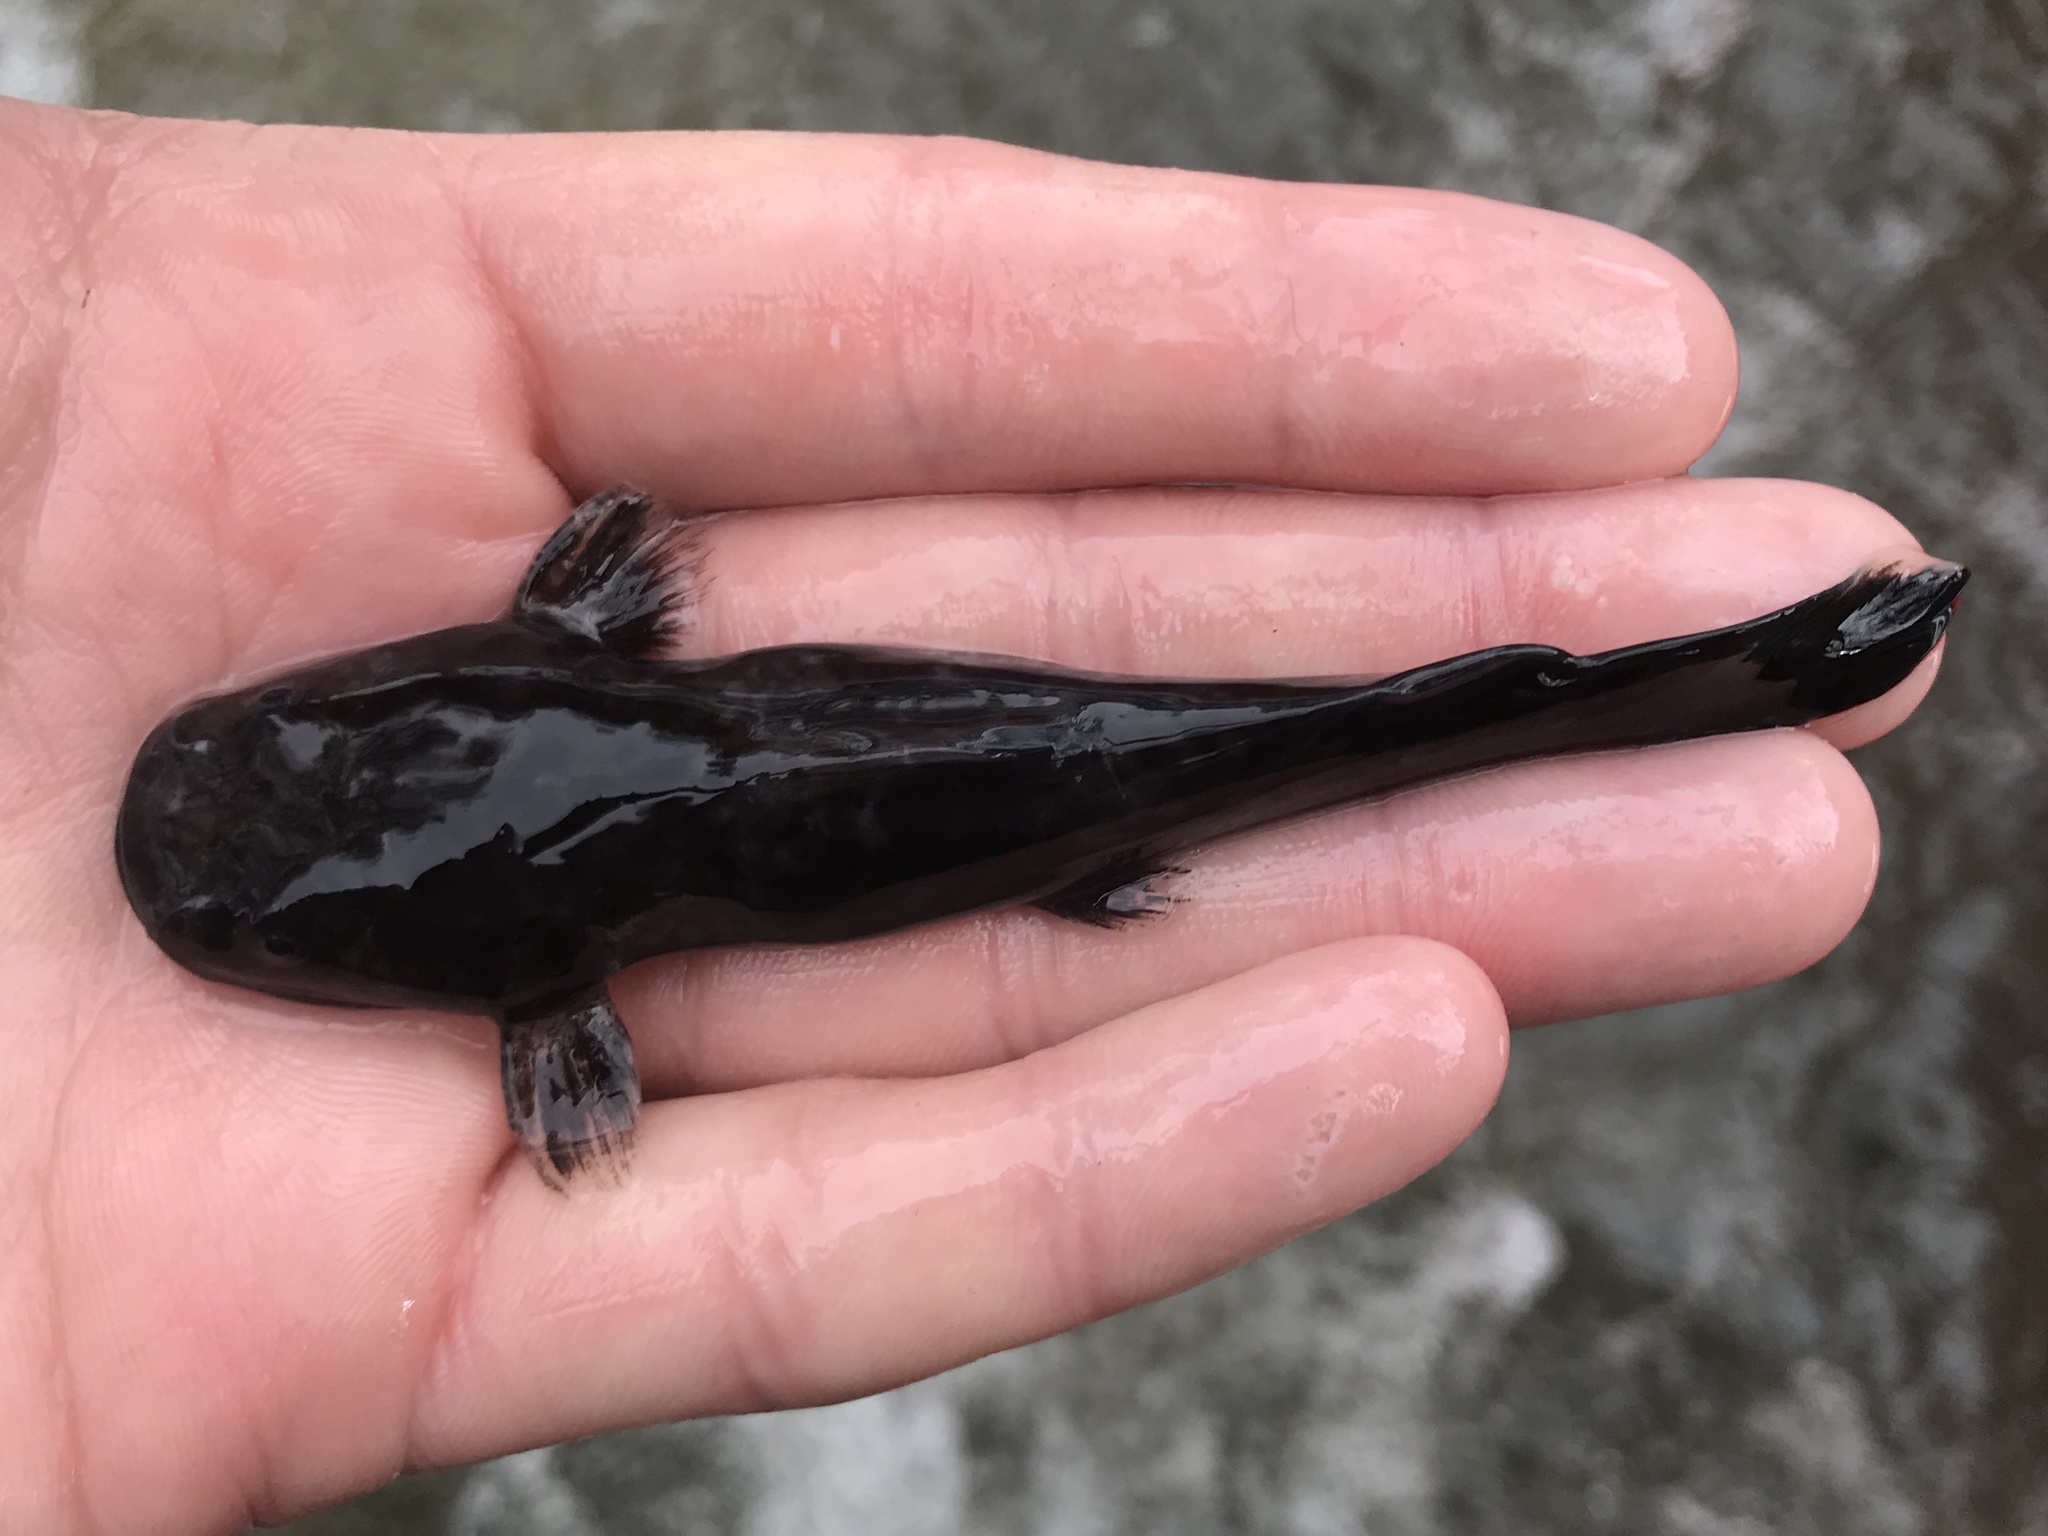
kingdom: Animalia
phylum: Chordata
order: Siluriformes
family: Ictaluridae
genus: Pylodictis
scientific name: Pylodictis olivaris
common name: Flathead catfish
